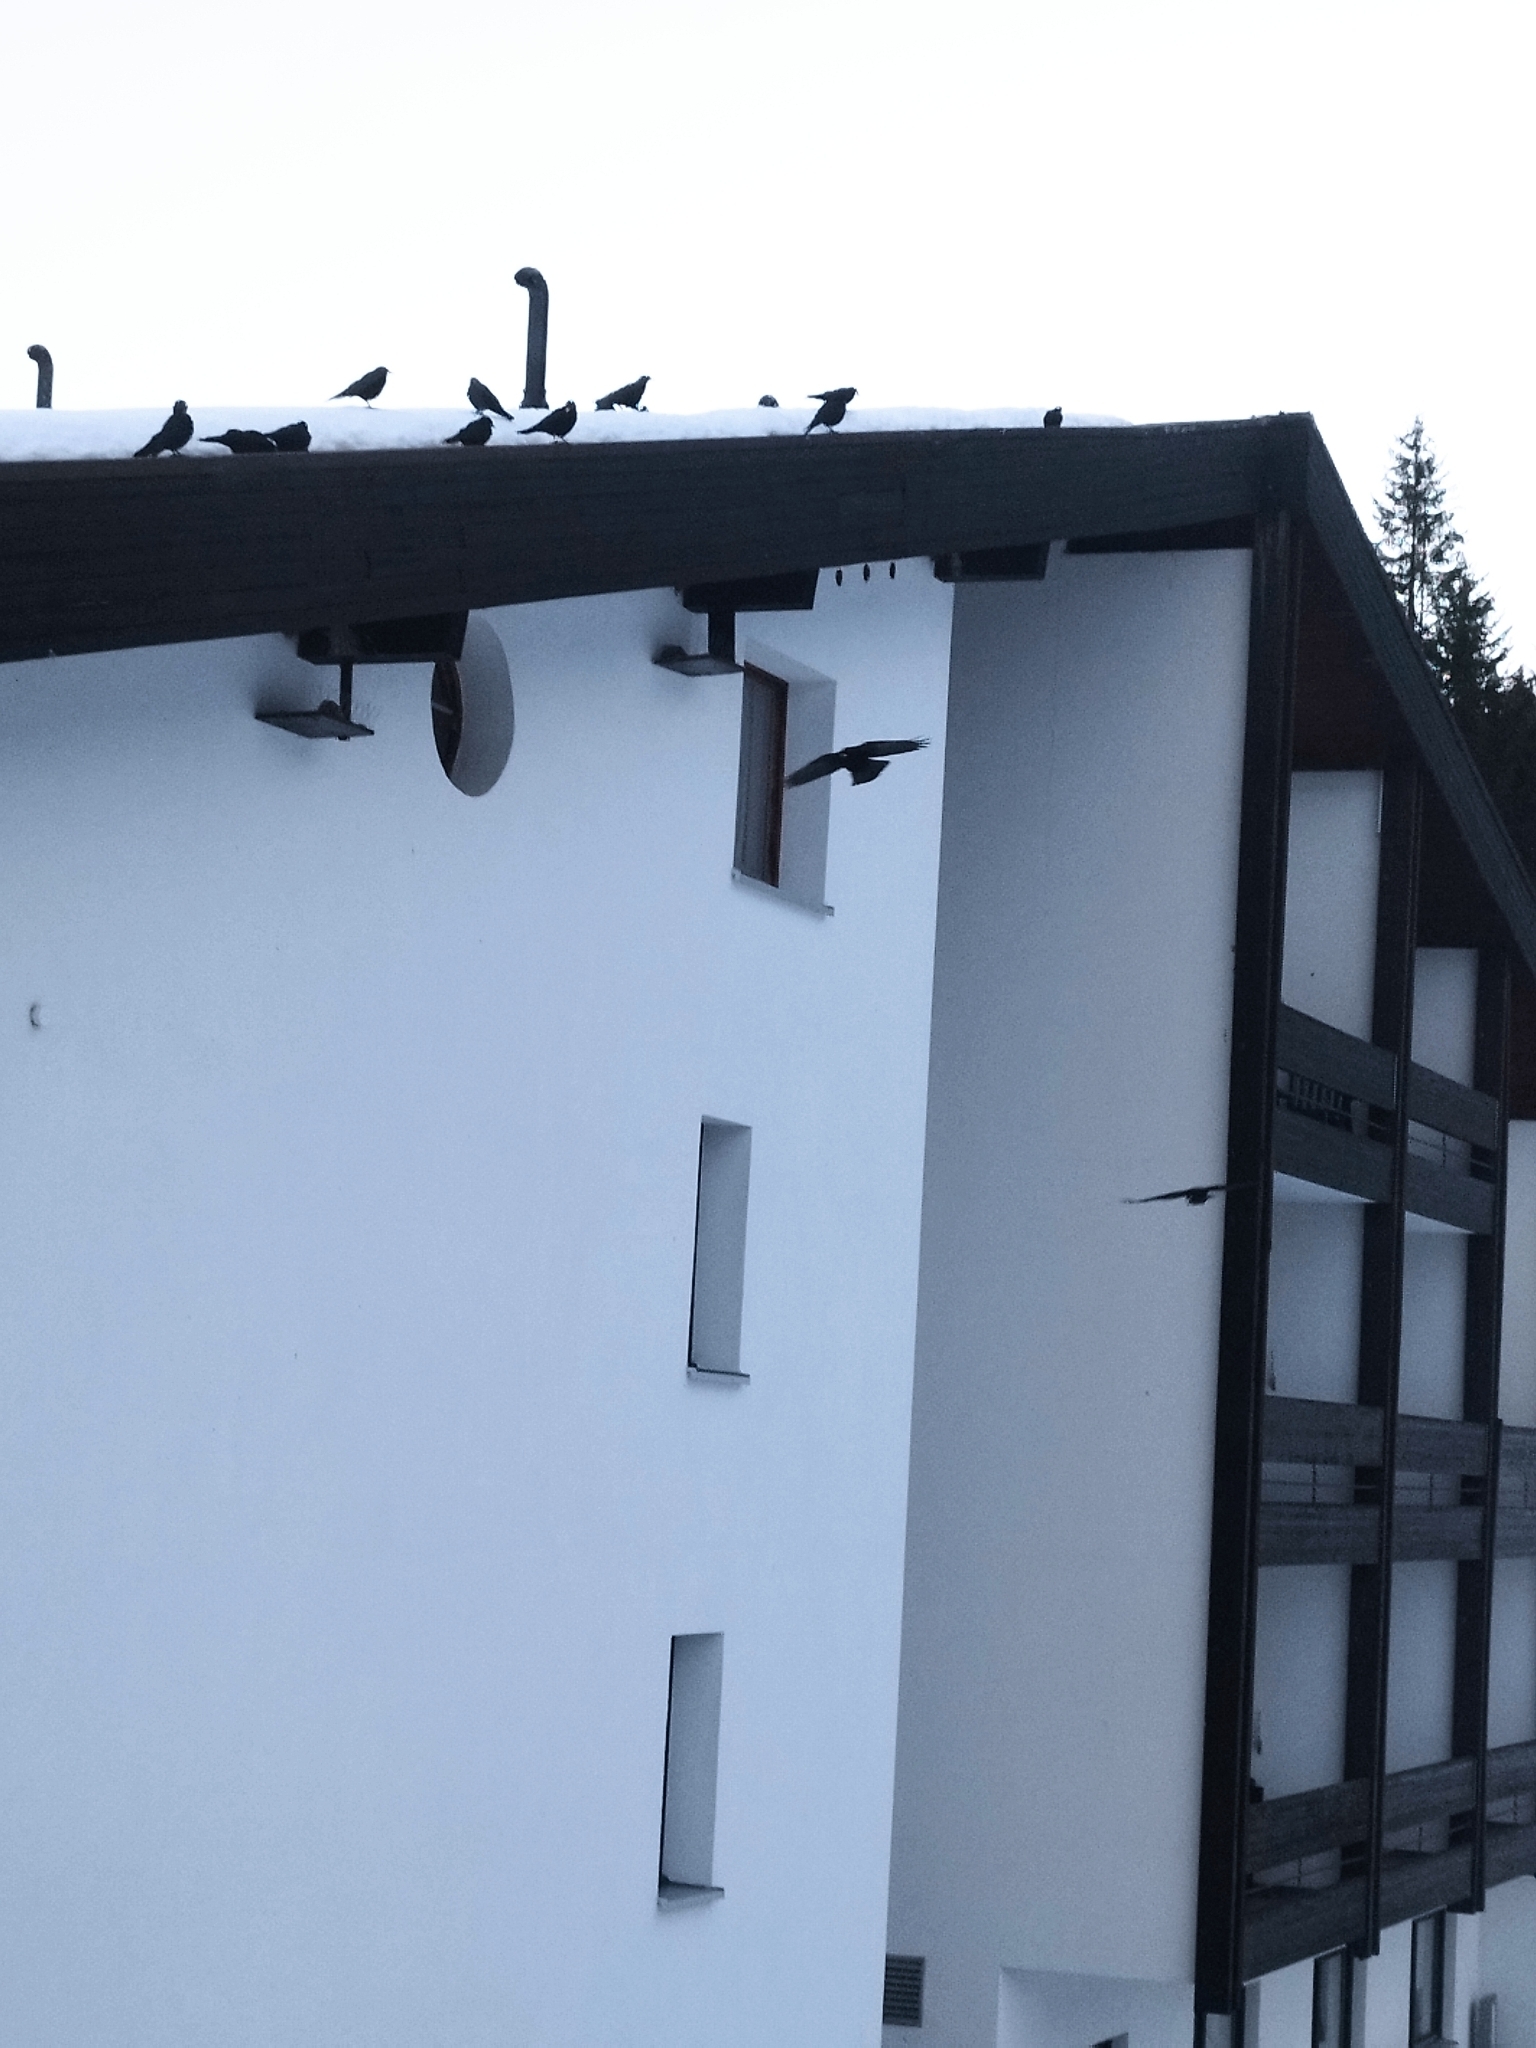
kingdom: Animalia
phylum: Chordata
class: Aves
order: Passeriformes
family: Corvidae
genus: Pyrrhocorax
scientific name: Pyrrhocorax graculus
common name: Alpine chough
